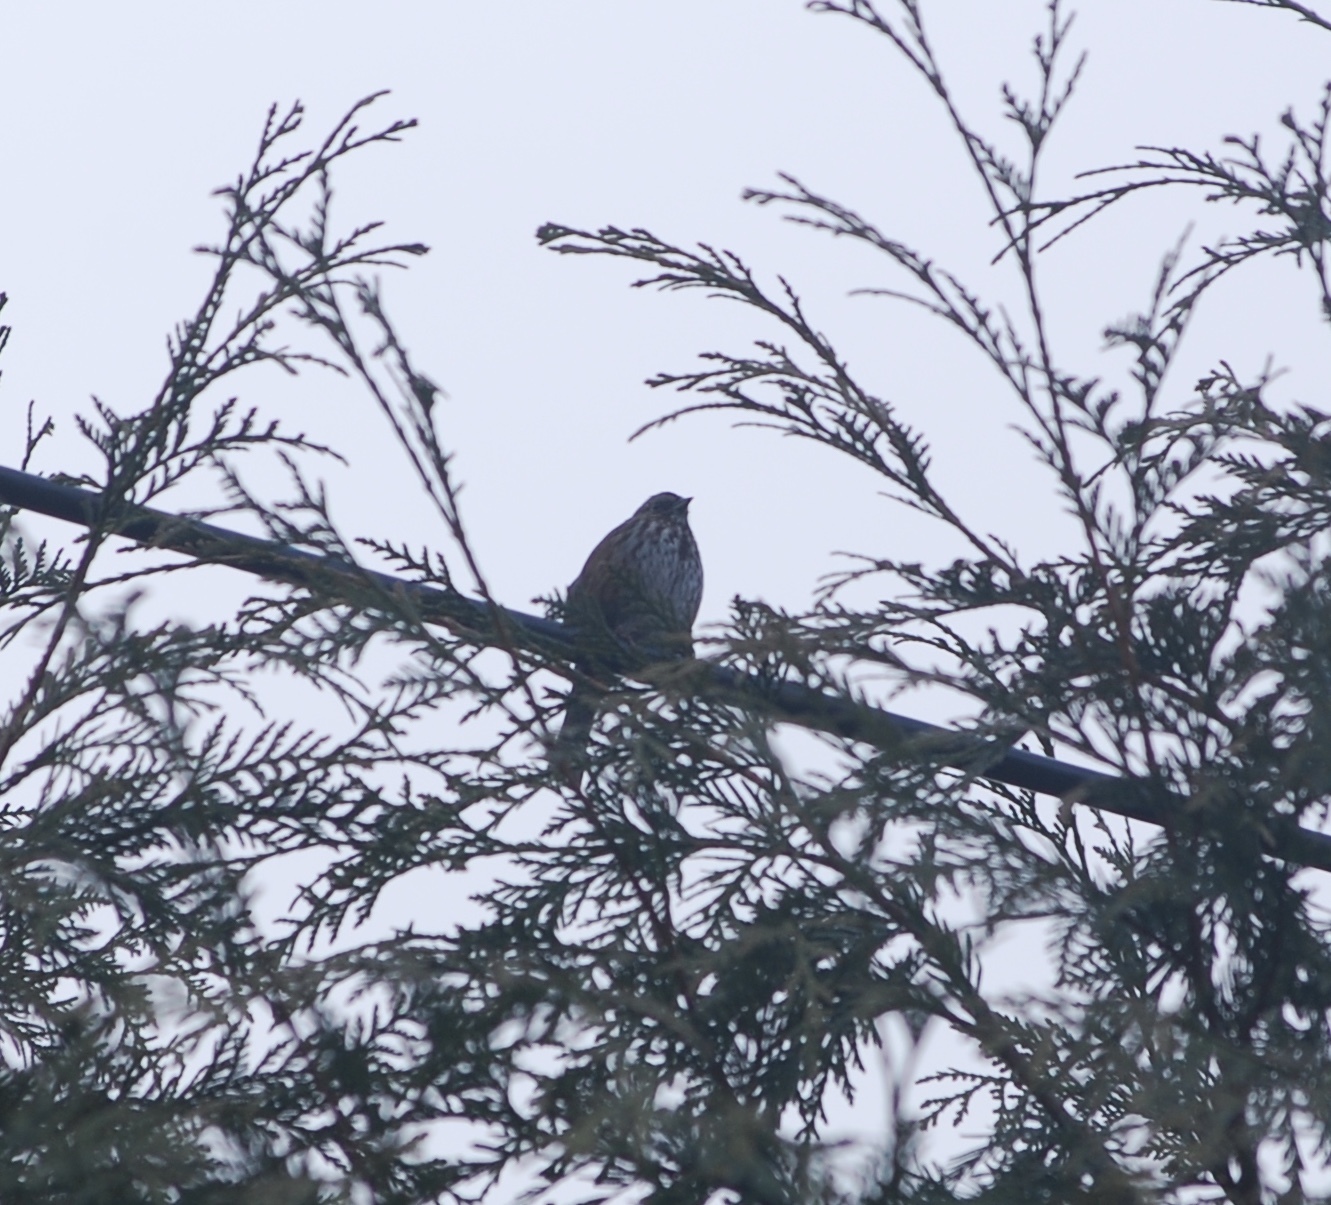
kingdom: Animalia
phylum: Chordata
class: Aves
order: Passeriformes
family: Passerellidae
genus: Melospiza
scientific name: Melospiza melodia
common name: Song sparrow
